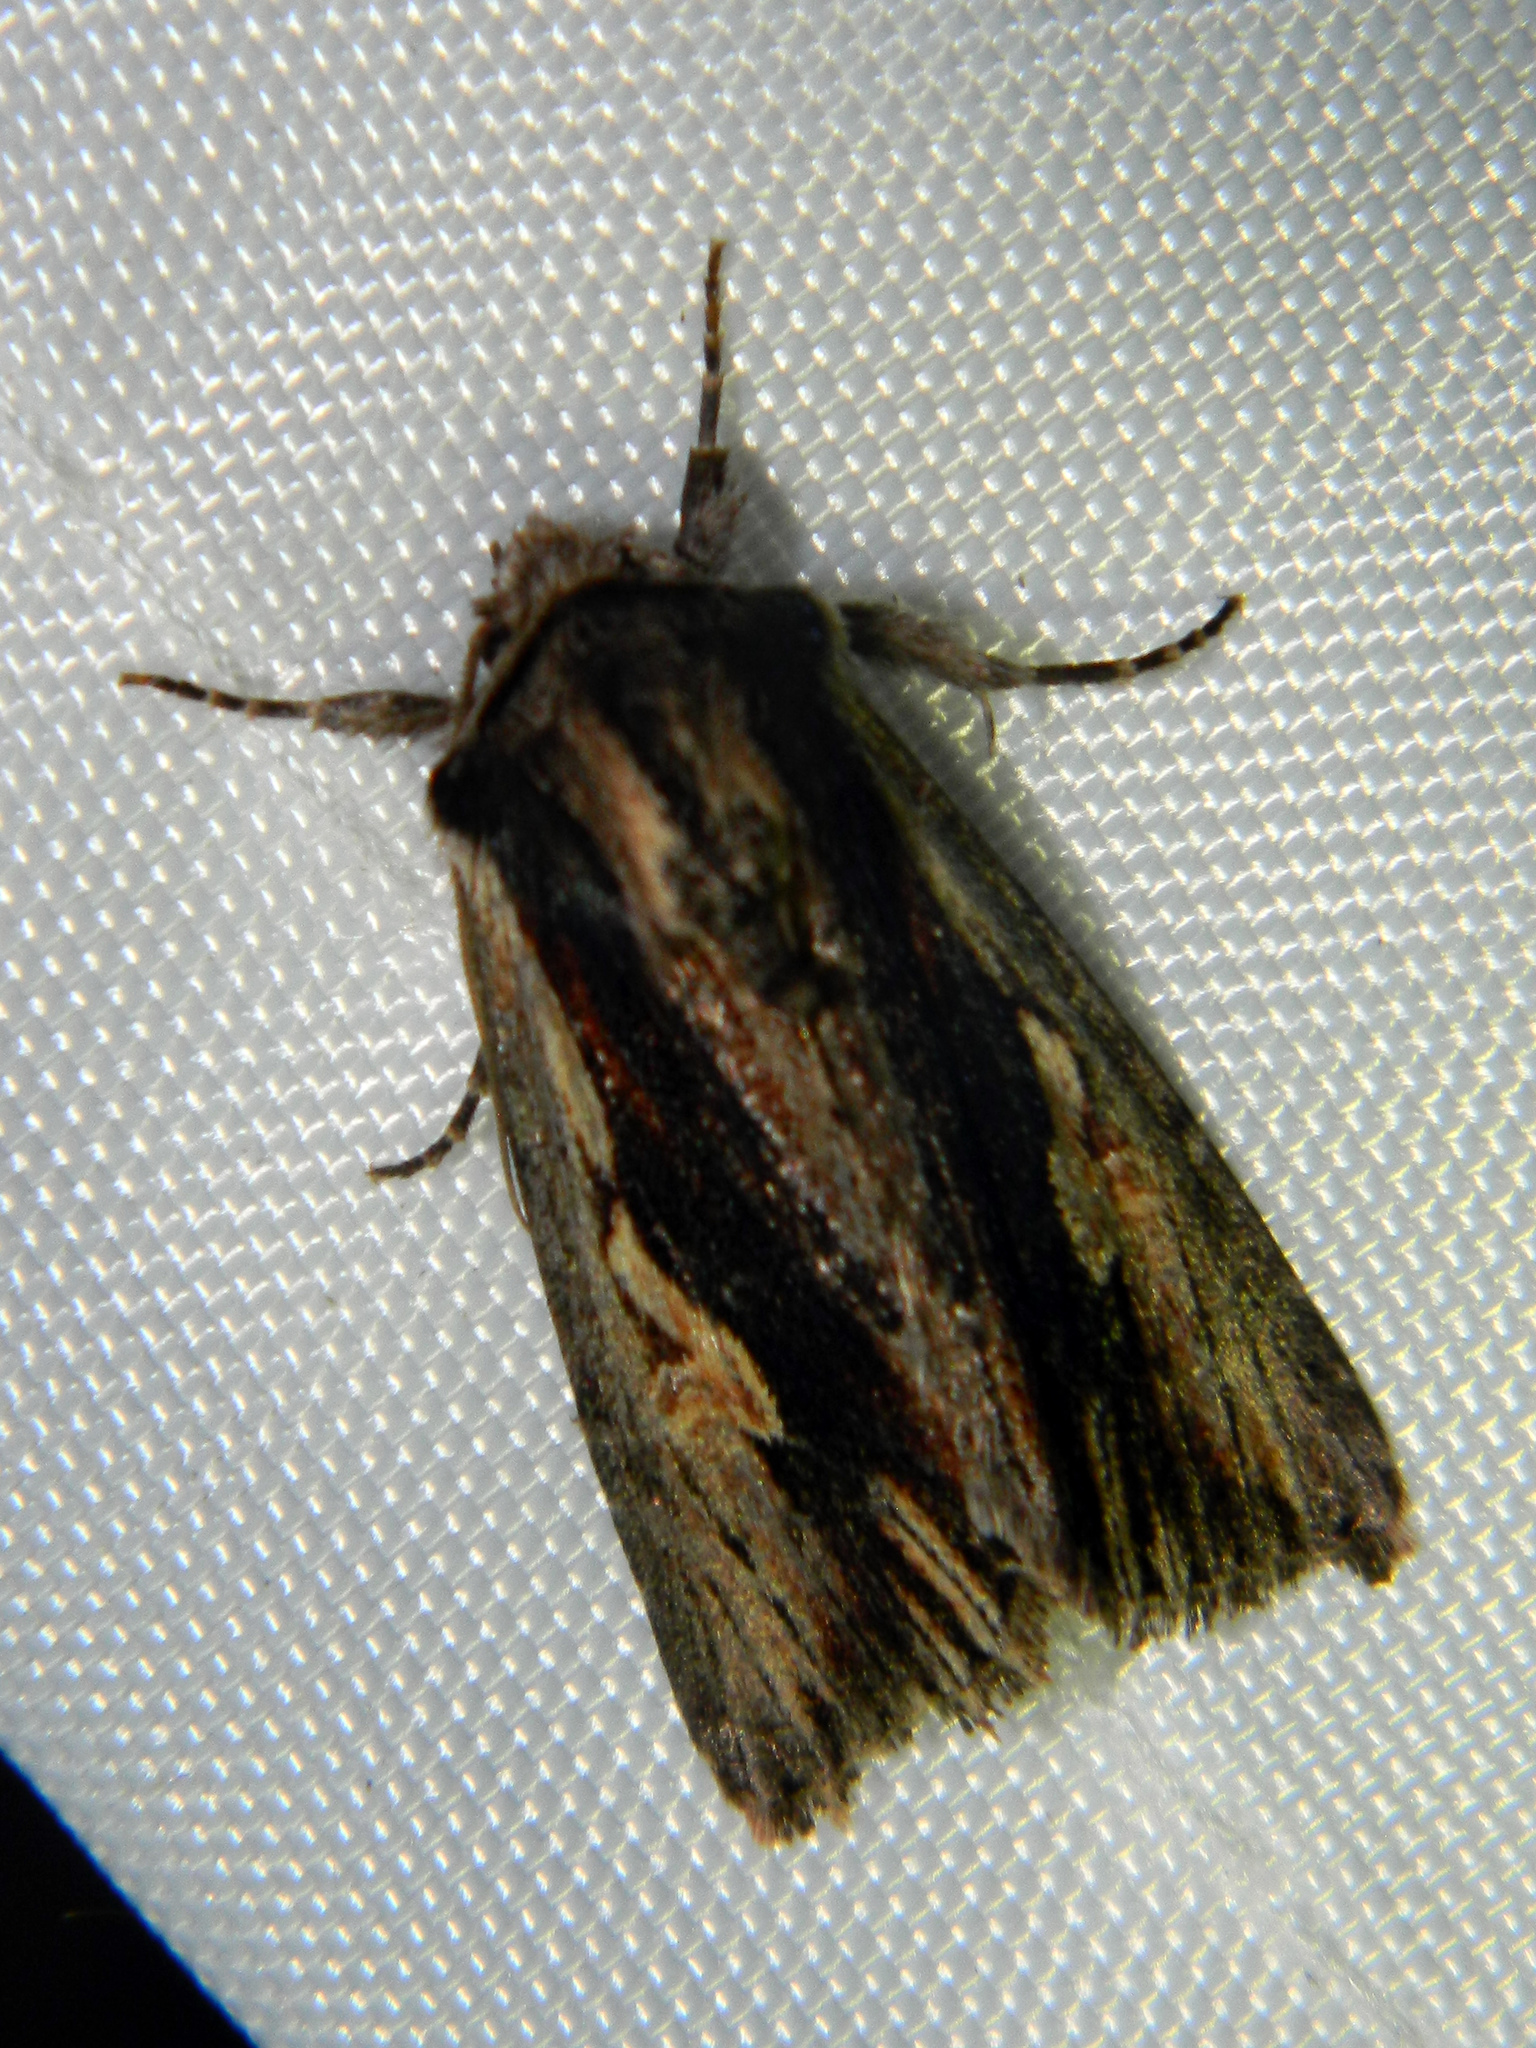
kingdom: Animalia
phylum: Arthropoda
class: Insecta
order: Lepidoptera
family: Noctuidae
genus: Achatia
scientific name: Achatia evicta
